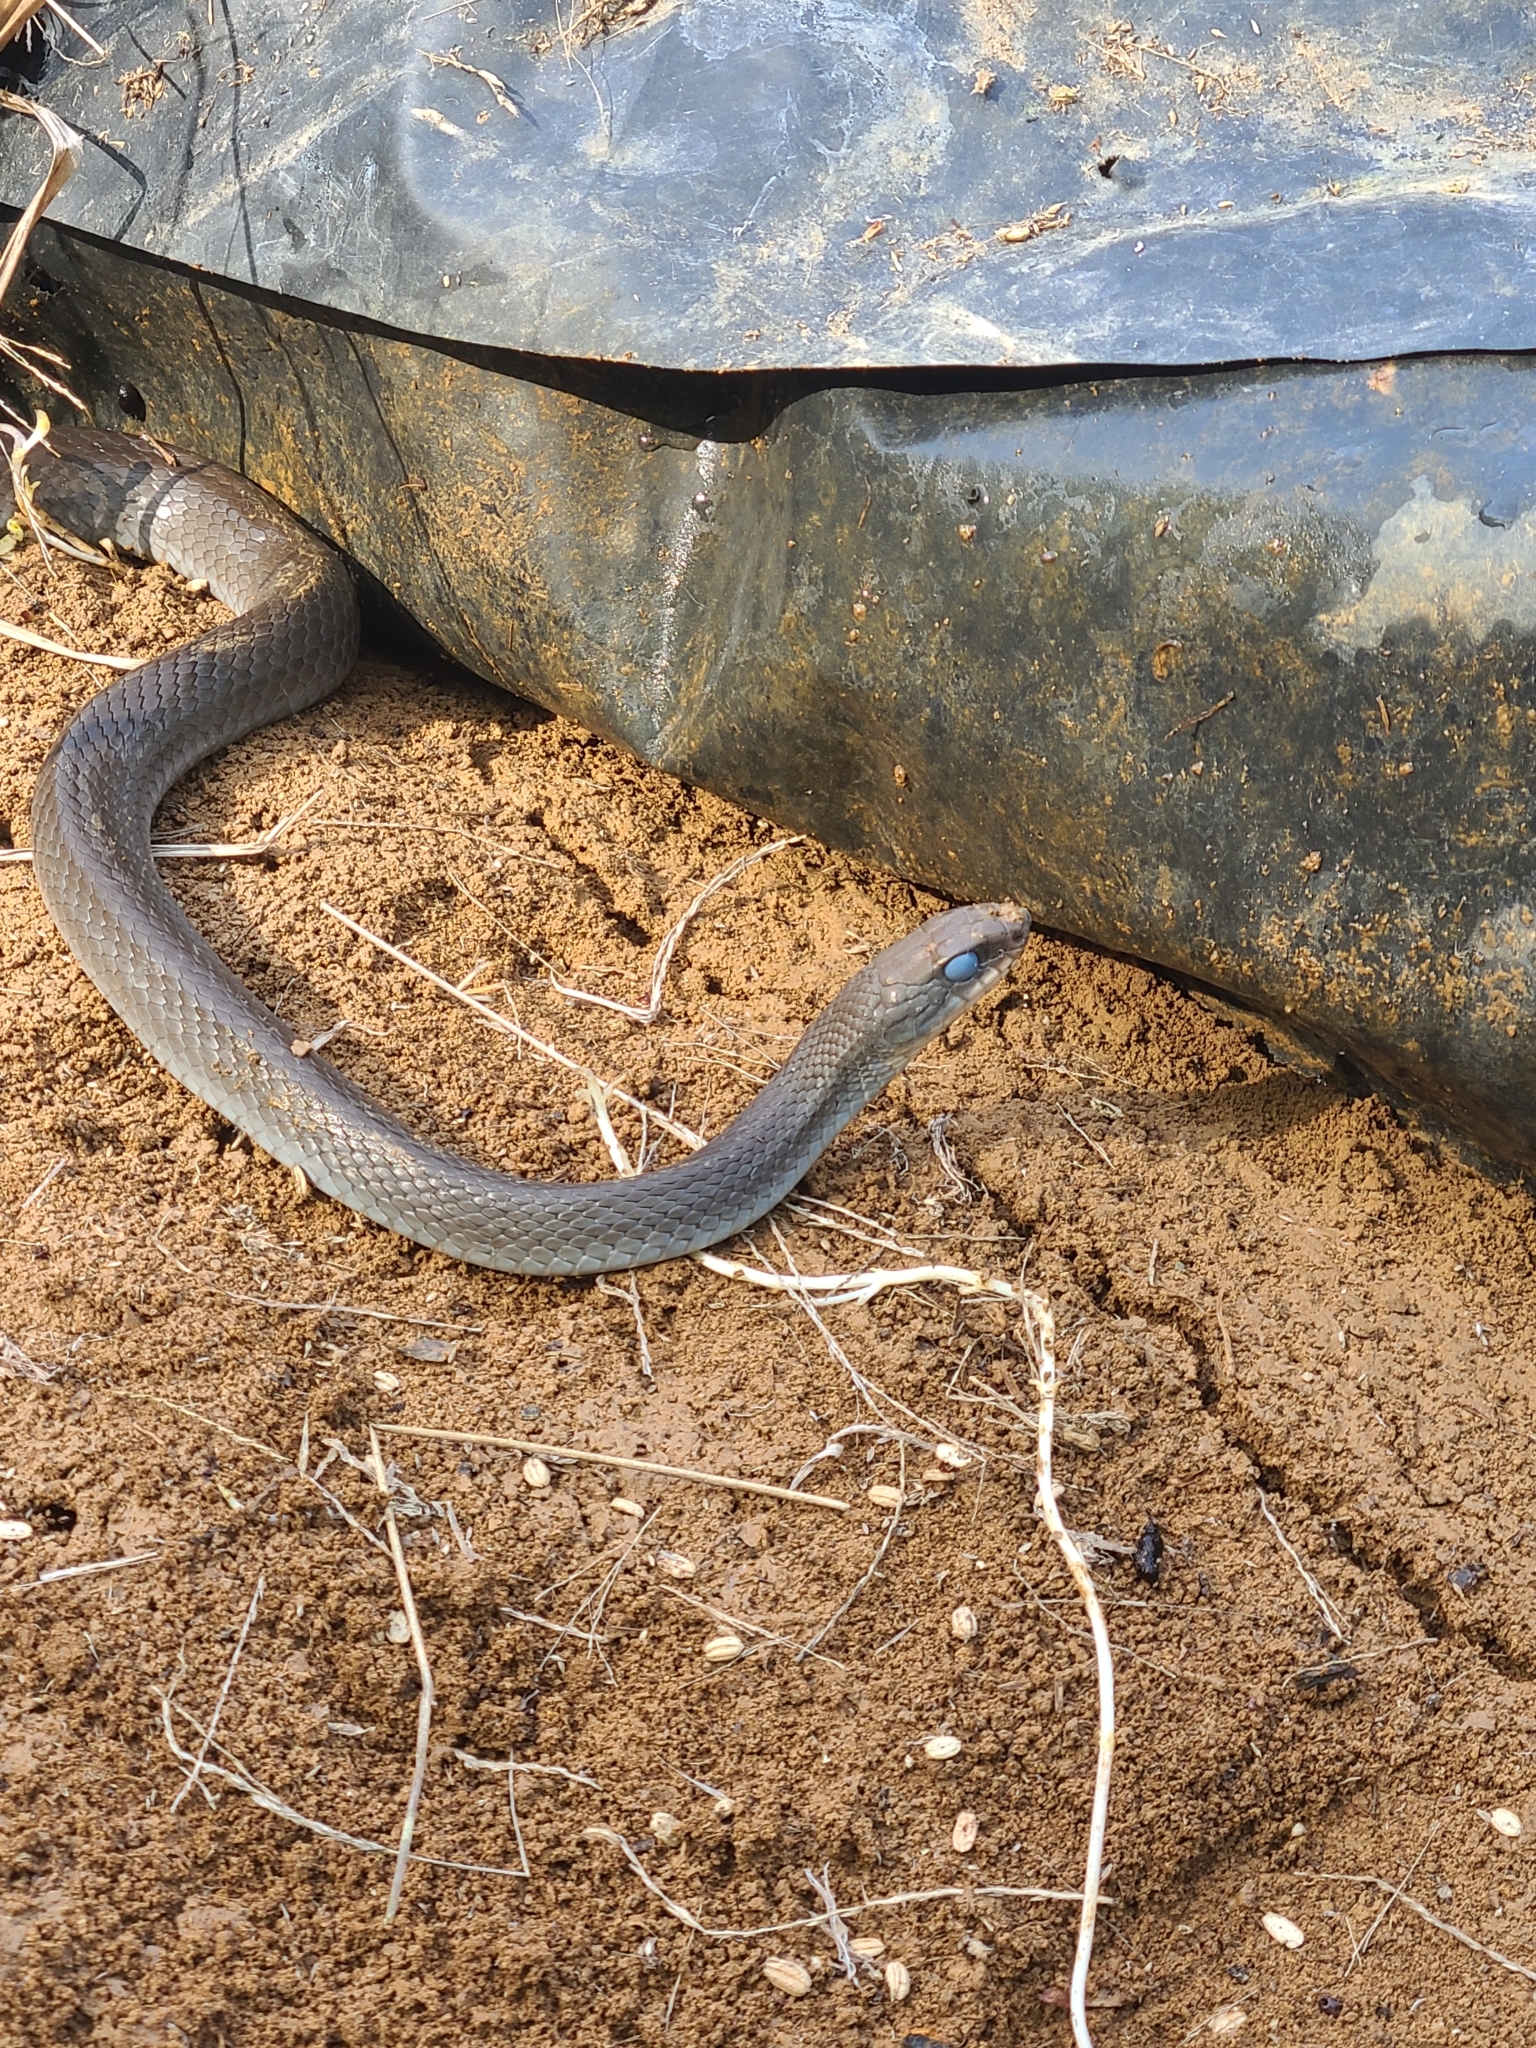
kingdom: Animalia
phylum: Chordata
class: Squamata
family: Colubridae
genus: Coluber
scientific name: Coluber constrictor
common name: Eastern racer
